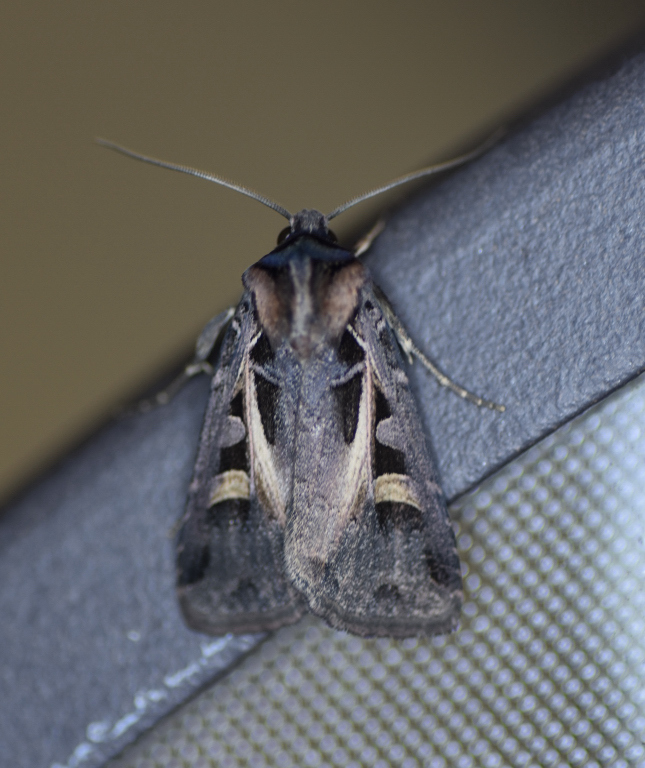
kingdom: Animalia
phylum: Arthropoda
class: Insecta
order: Lepidoptera
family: Noctuidae
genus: Feltia
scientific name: Feltia herilis
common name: Master's dart
